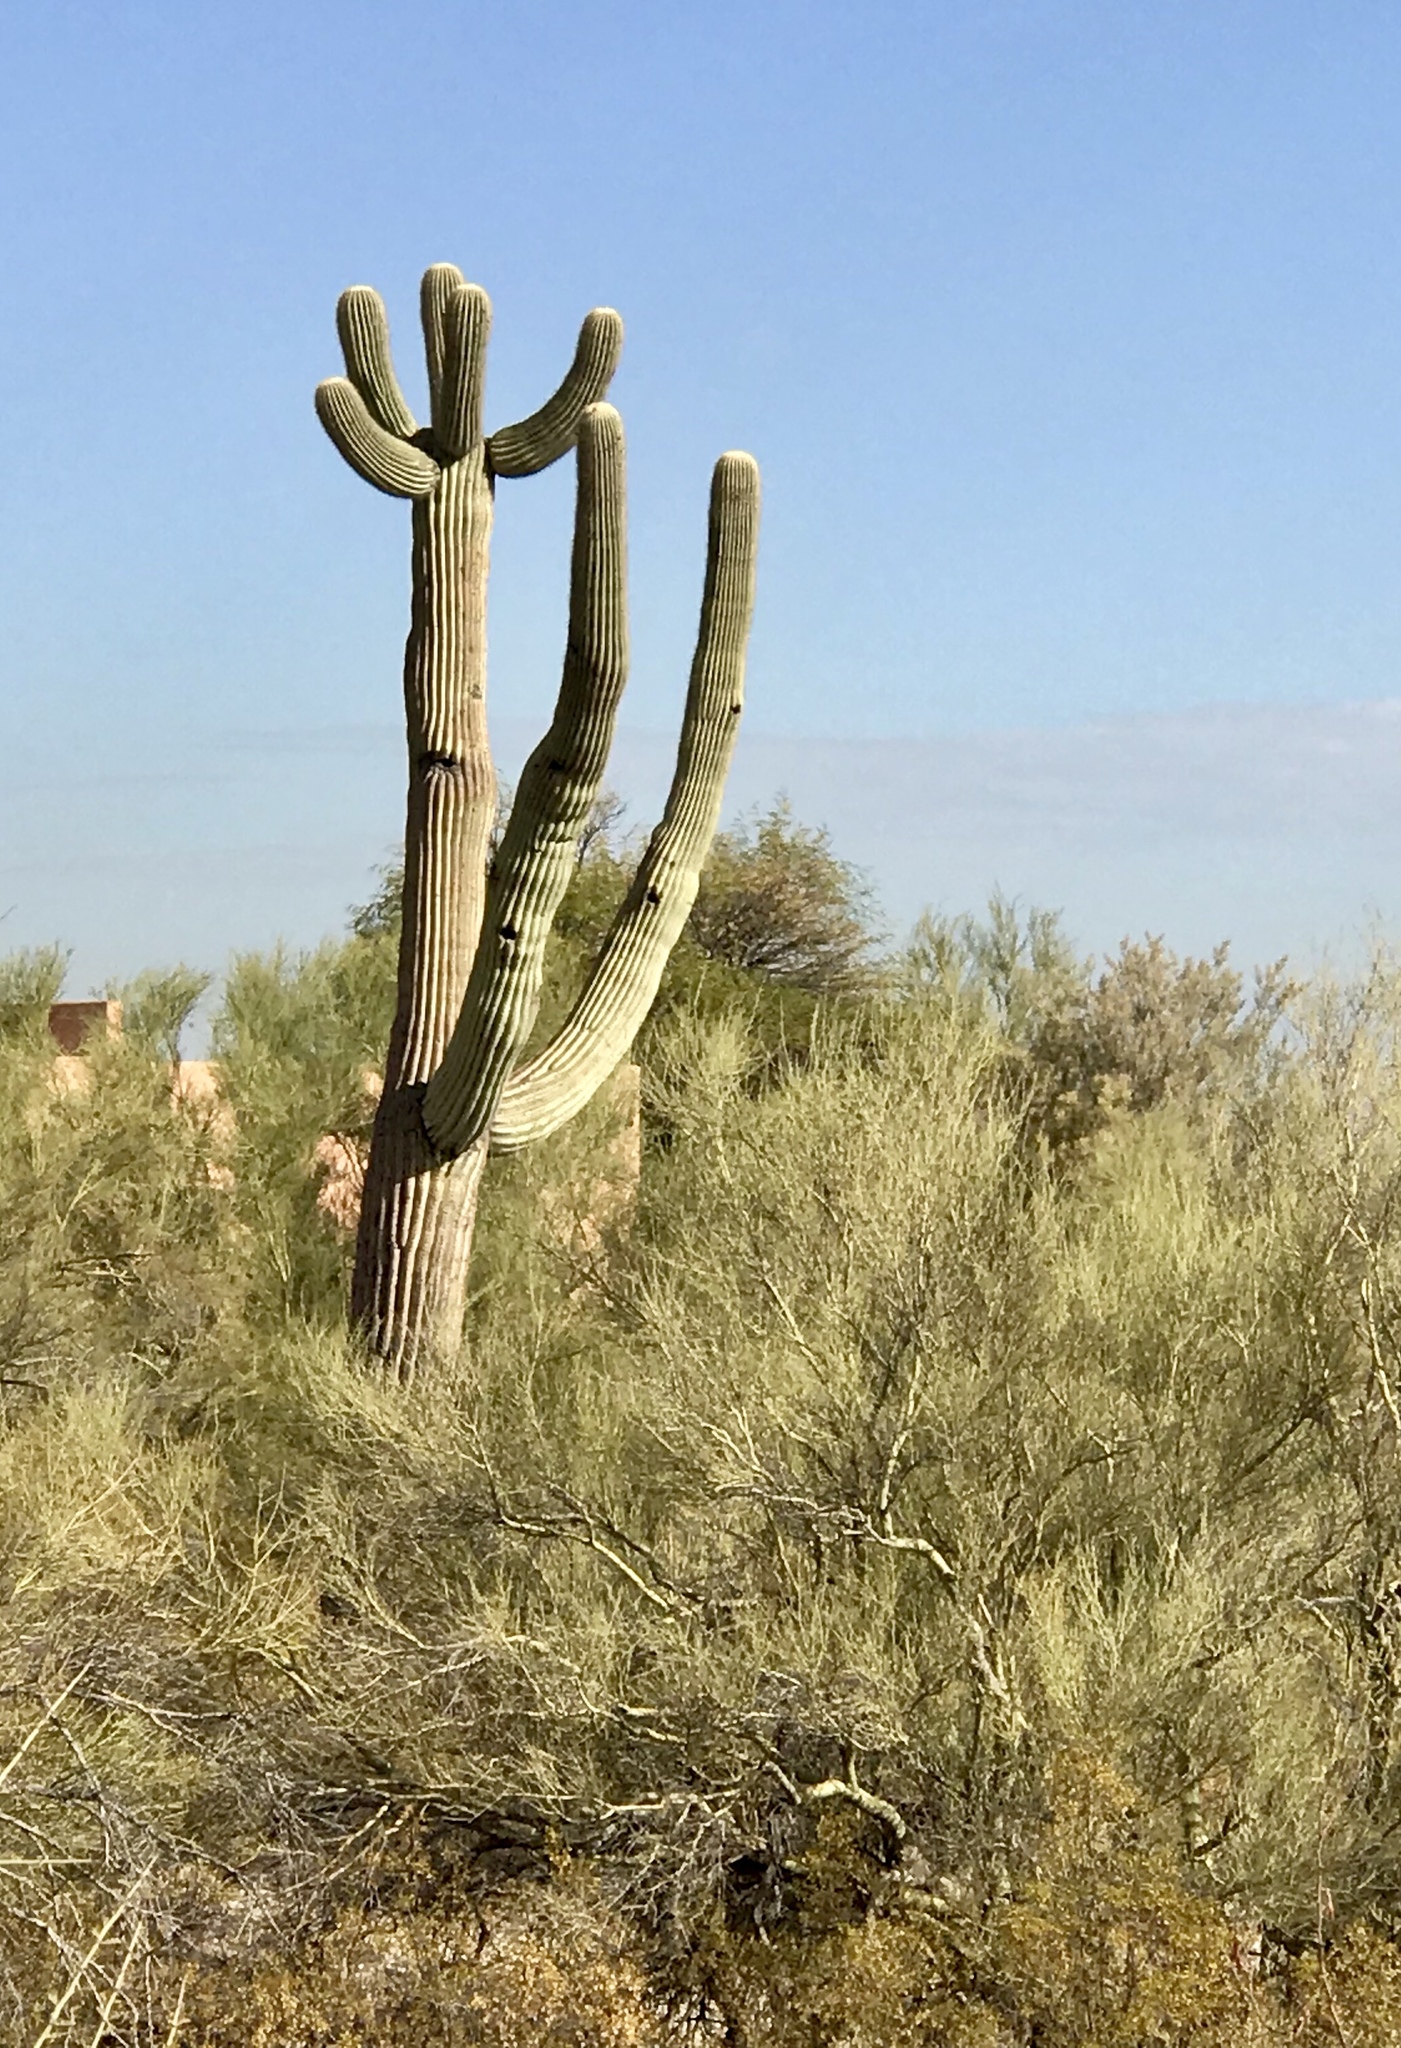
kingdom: Plantae
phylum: Tracheophyta
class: Magnoliopsida
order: Caryophyllales
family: Cactaceae
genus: Carnegiea
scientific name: Carnegiea gigantea
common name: Saguaro
